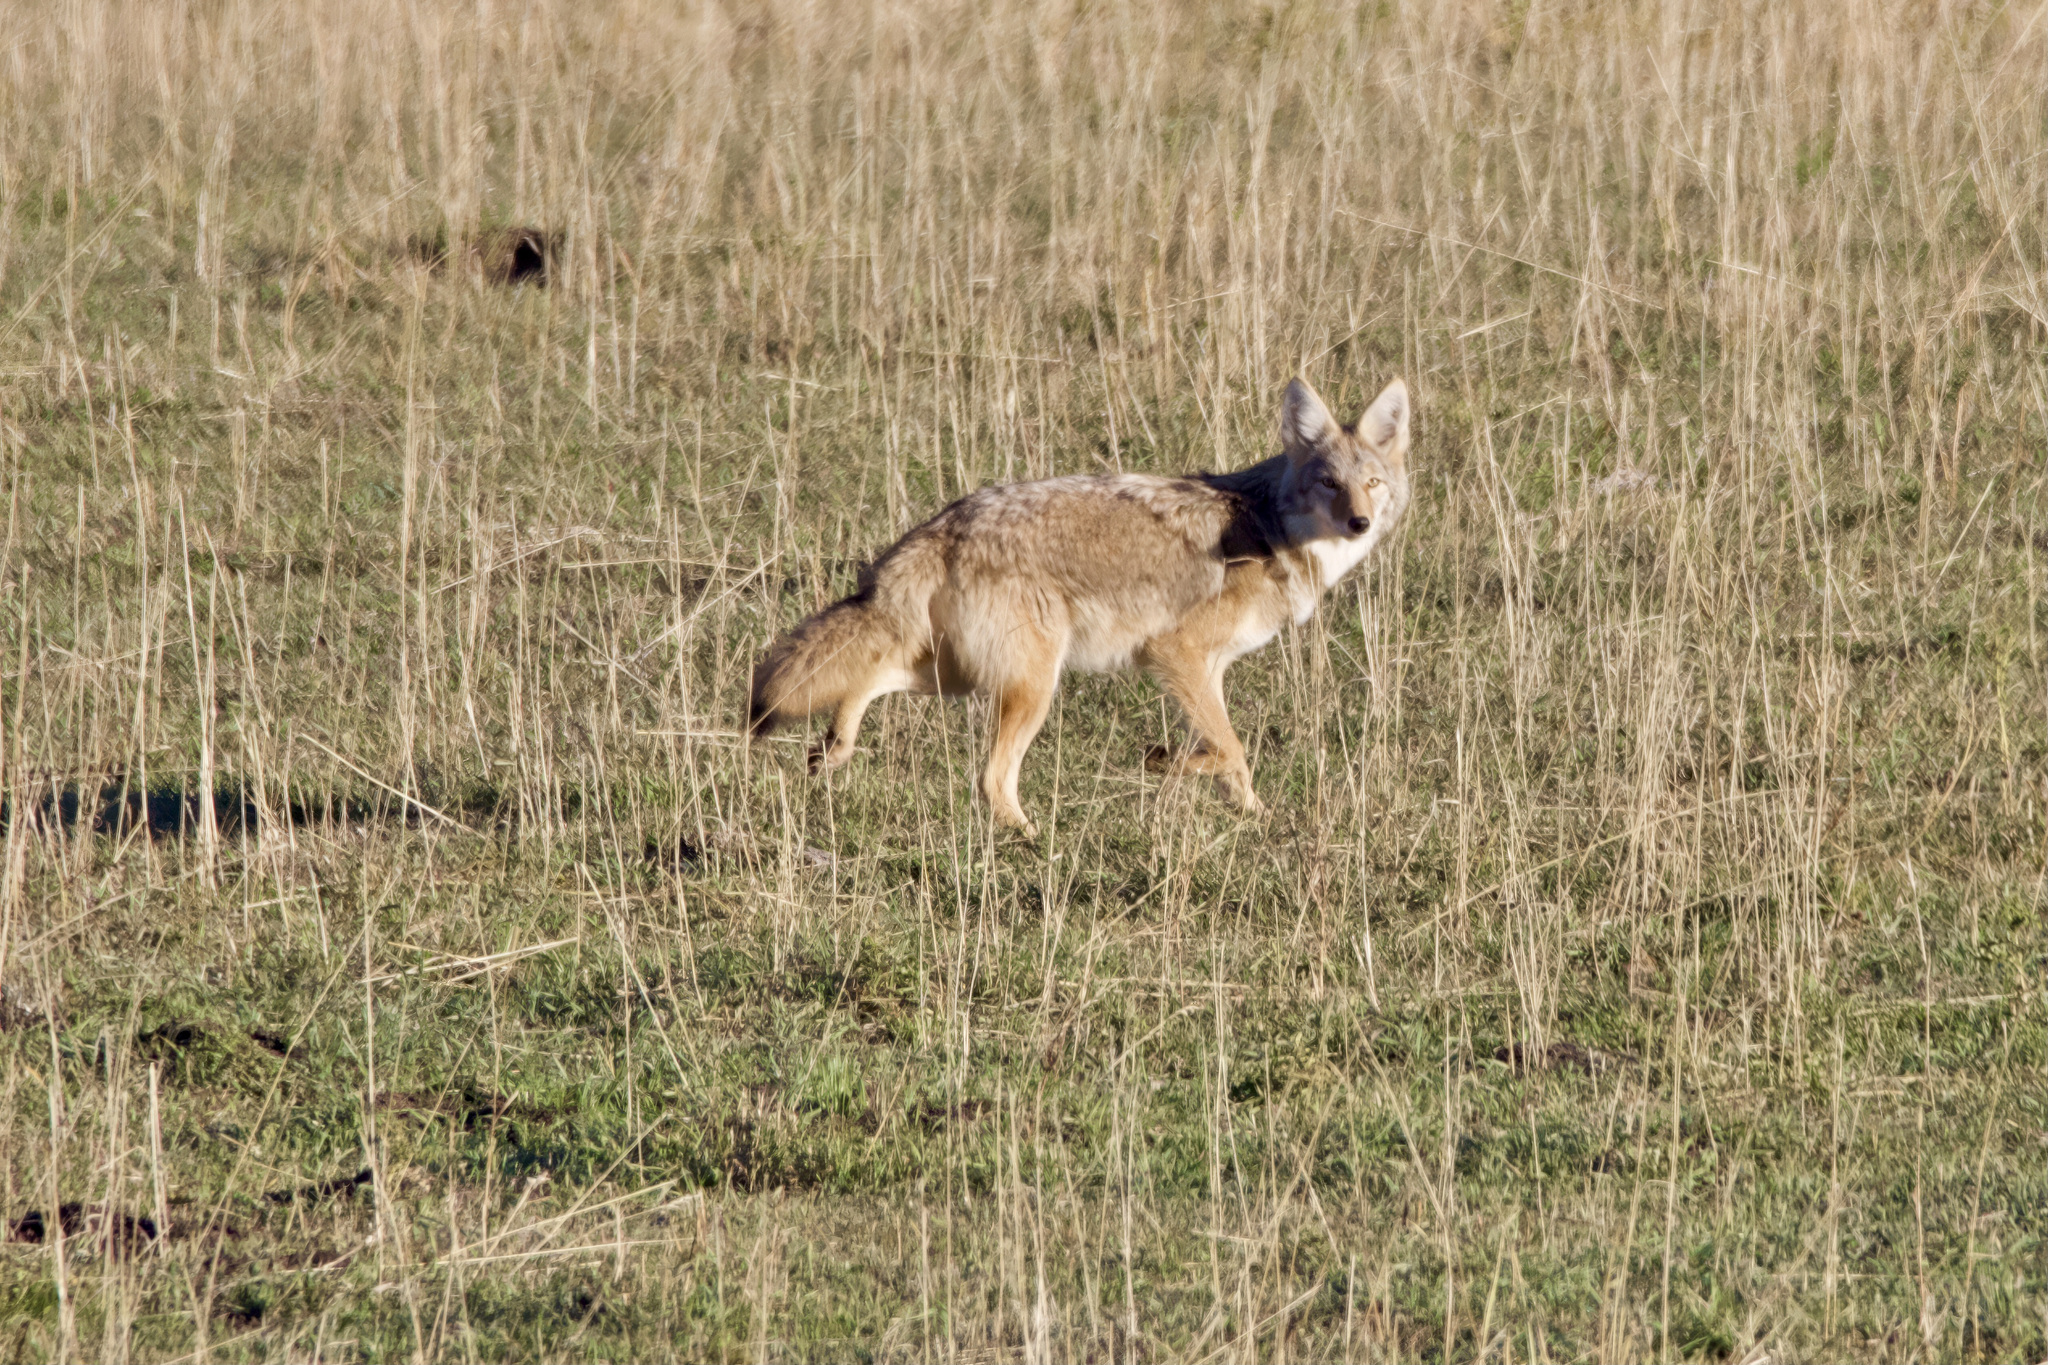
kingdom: Animalia
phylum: Chordata
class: Mammalia
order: Carnivora
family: Canidae
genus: Canis
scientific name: Canis latrans
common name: Coyote
